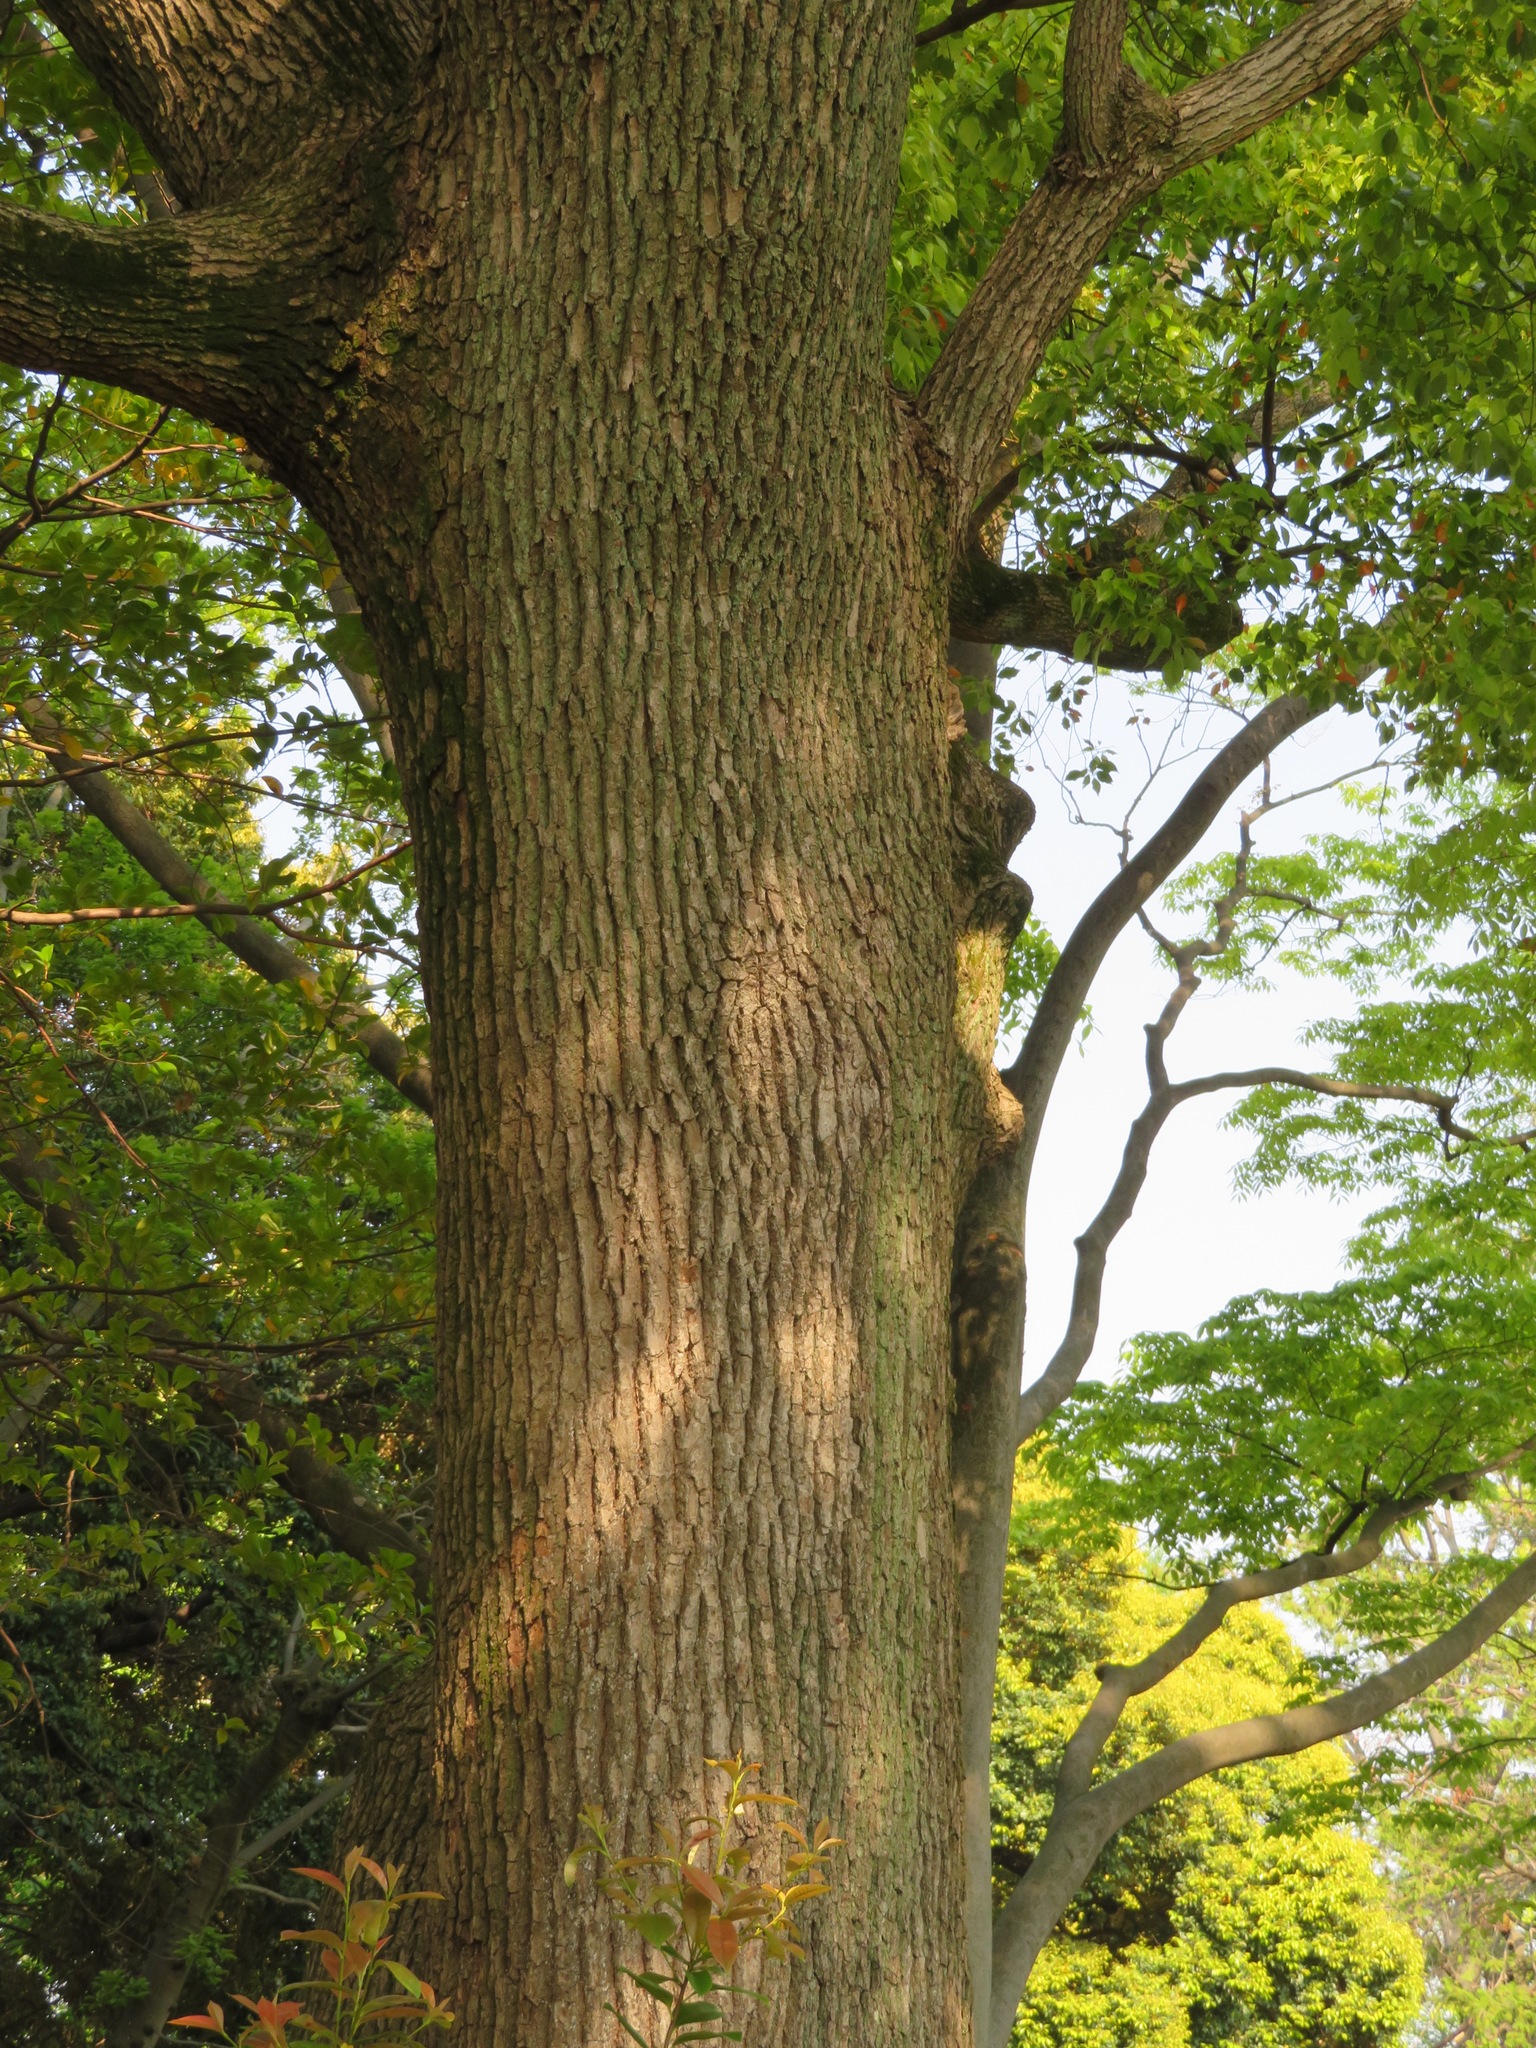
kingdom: Plantae
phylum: Tracheophyta
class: Magnoliopsida
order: Laurales
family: Lauraceae
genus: Cinnamomum
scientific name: Cinnamomum camphora
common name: Camphortree
